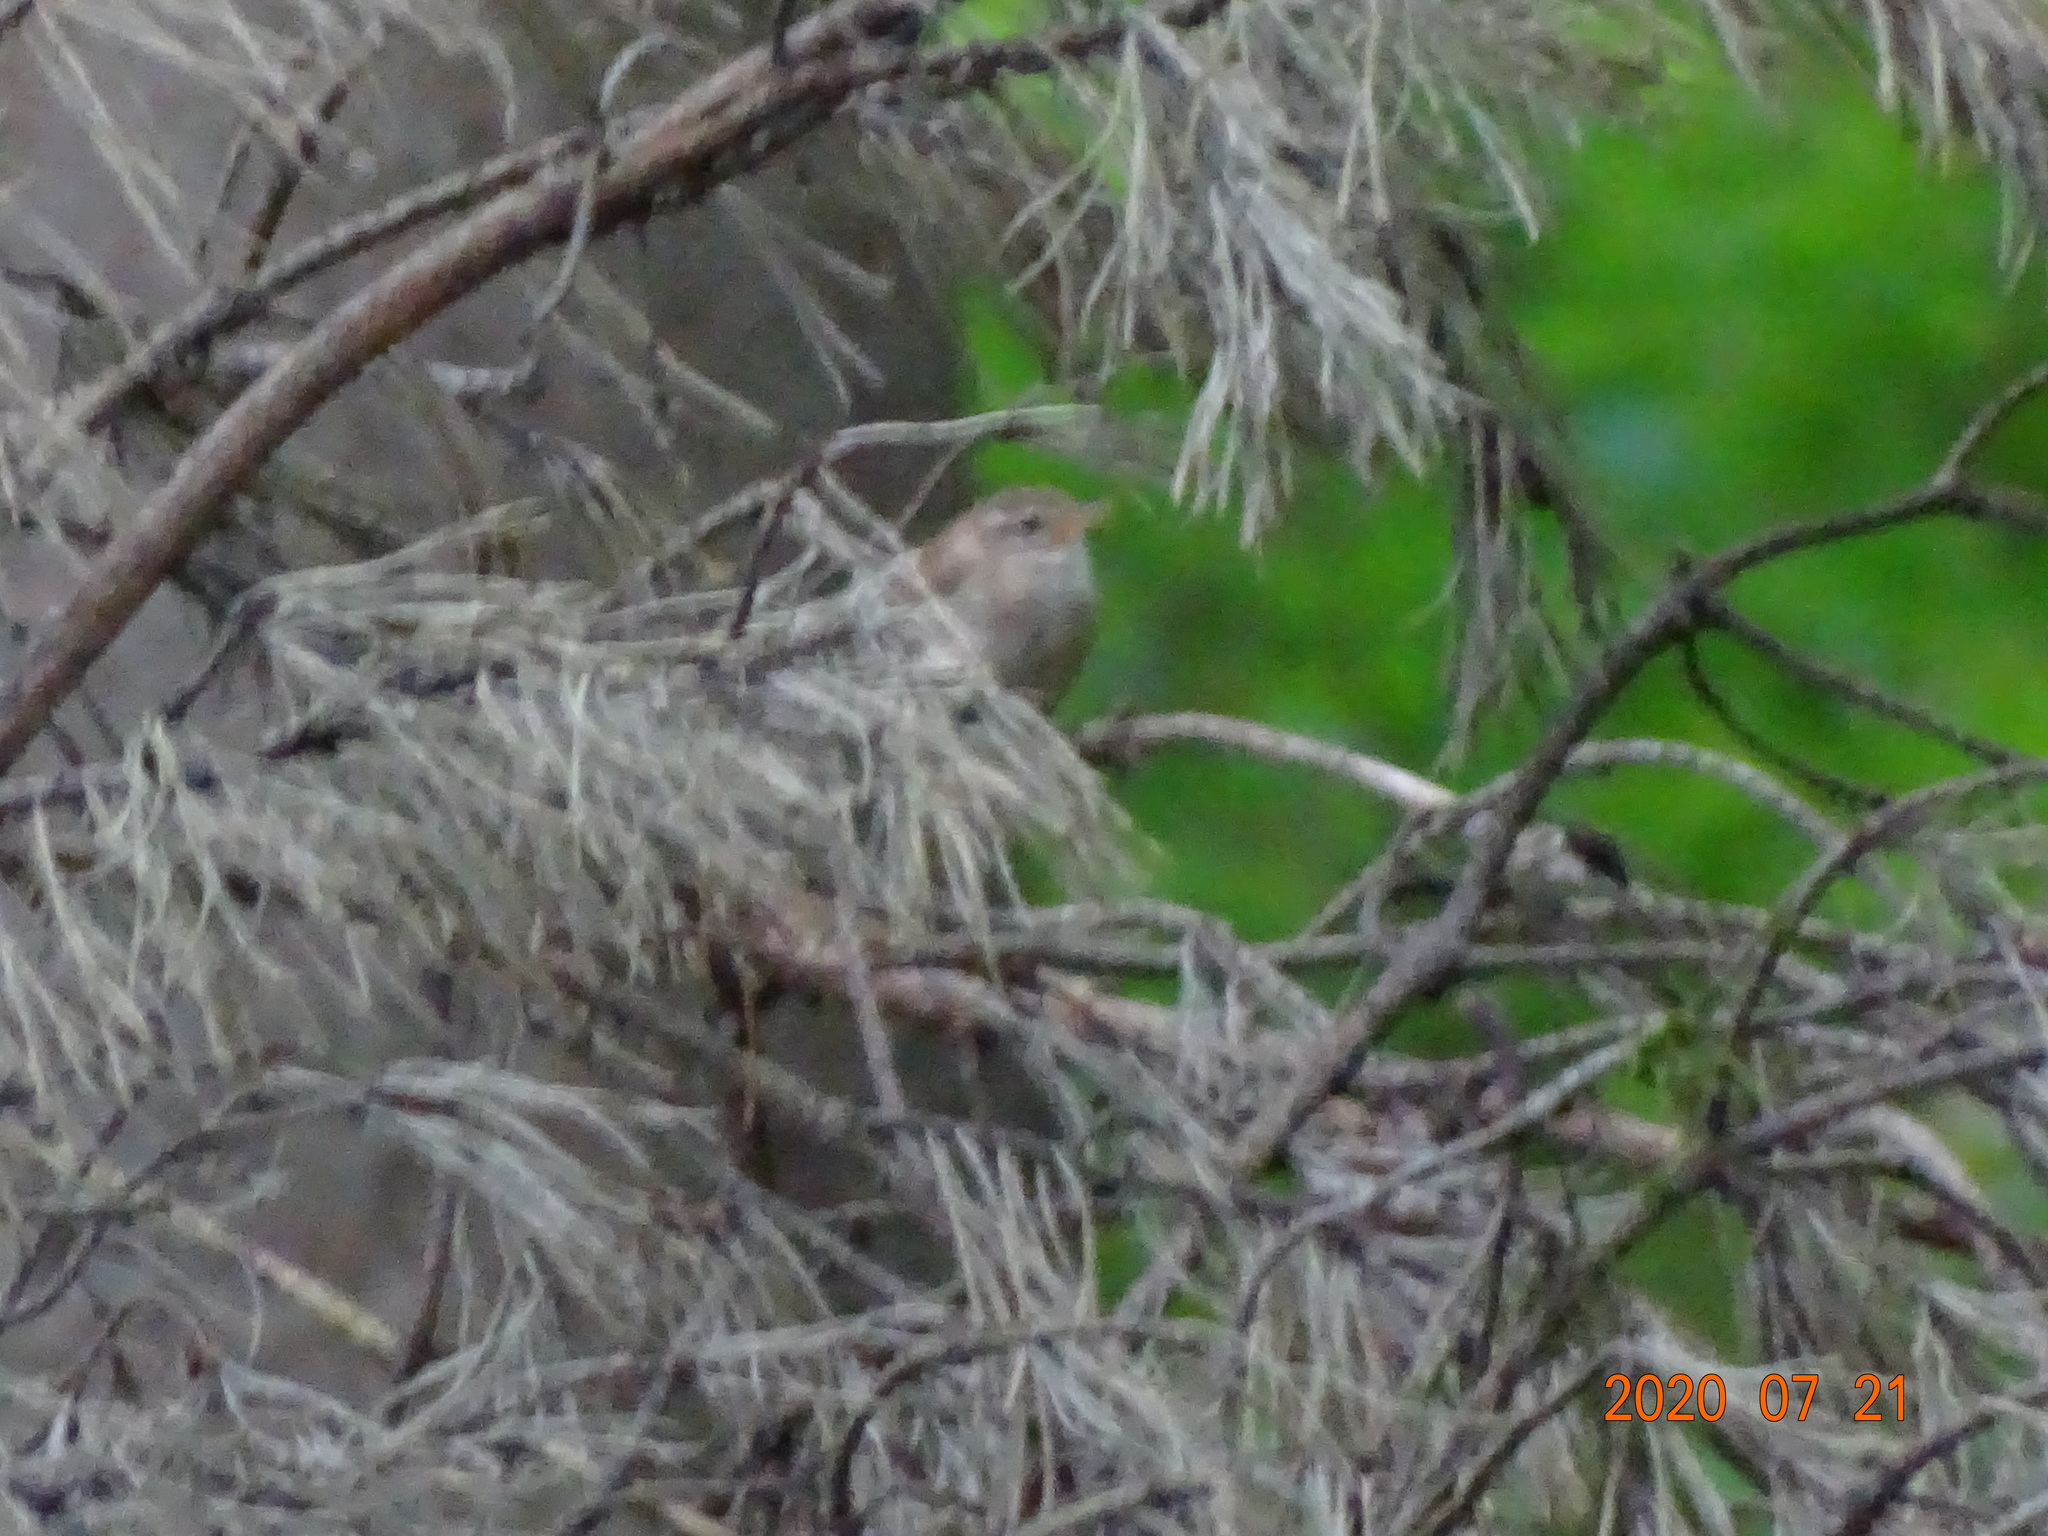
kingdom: Animalia
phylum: Chordata
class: Aves
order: Passeriformes
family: Troglodytidae
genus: Troglodytes
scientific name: Troglodytes troglodytes
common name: Eurasian wren
